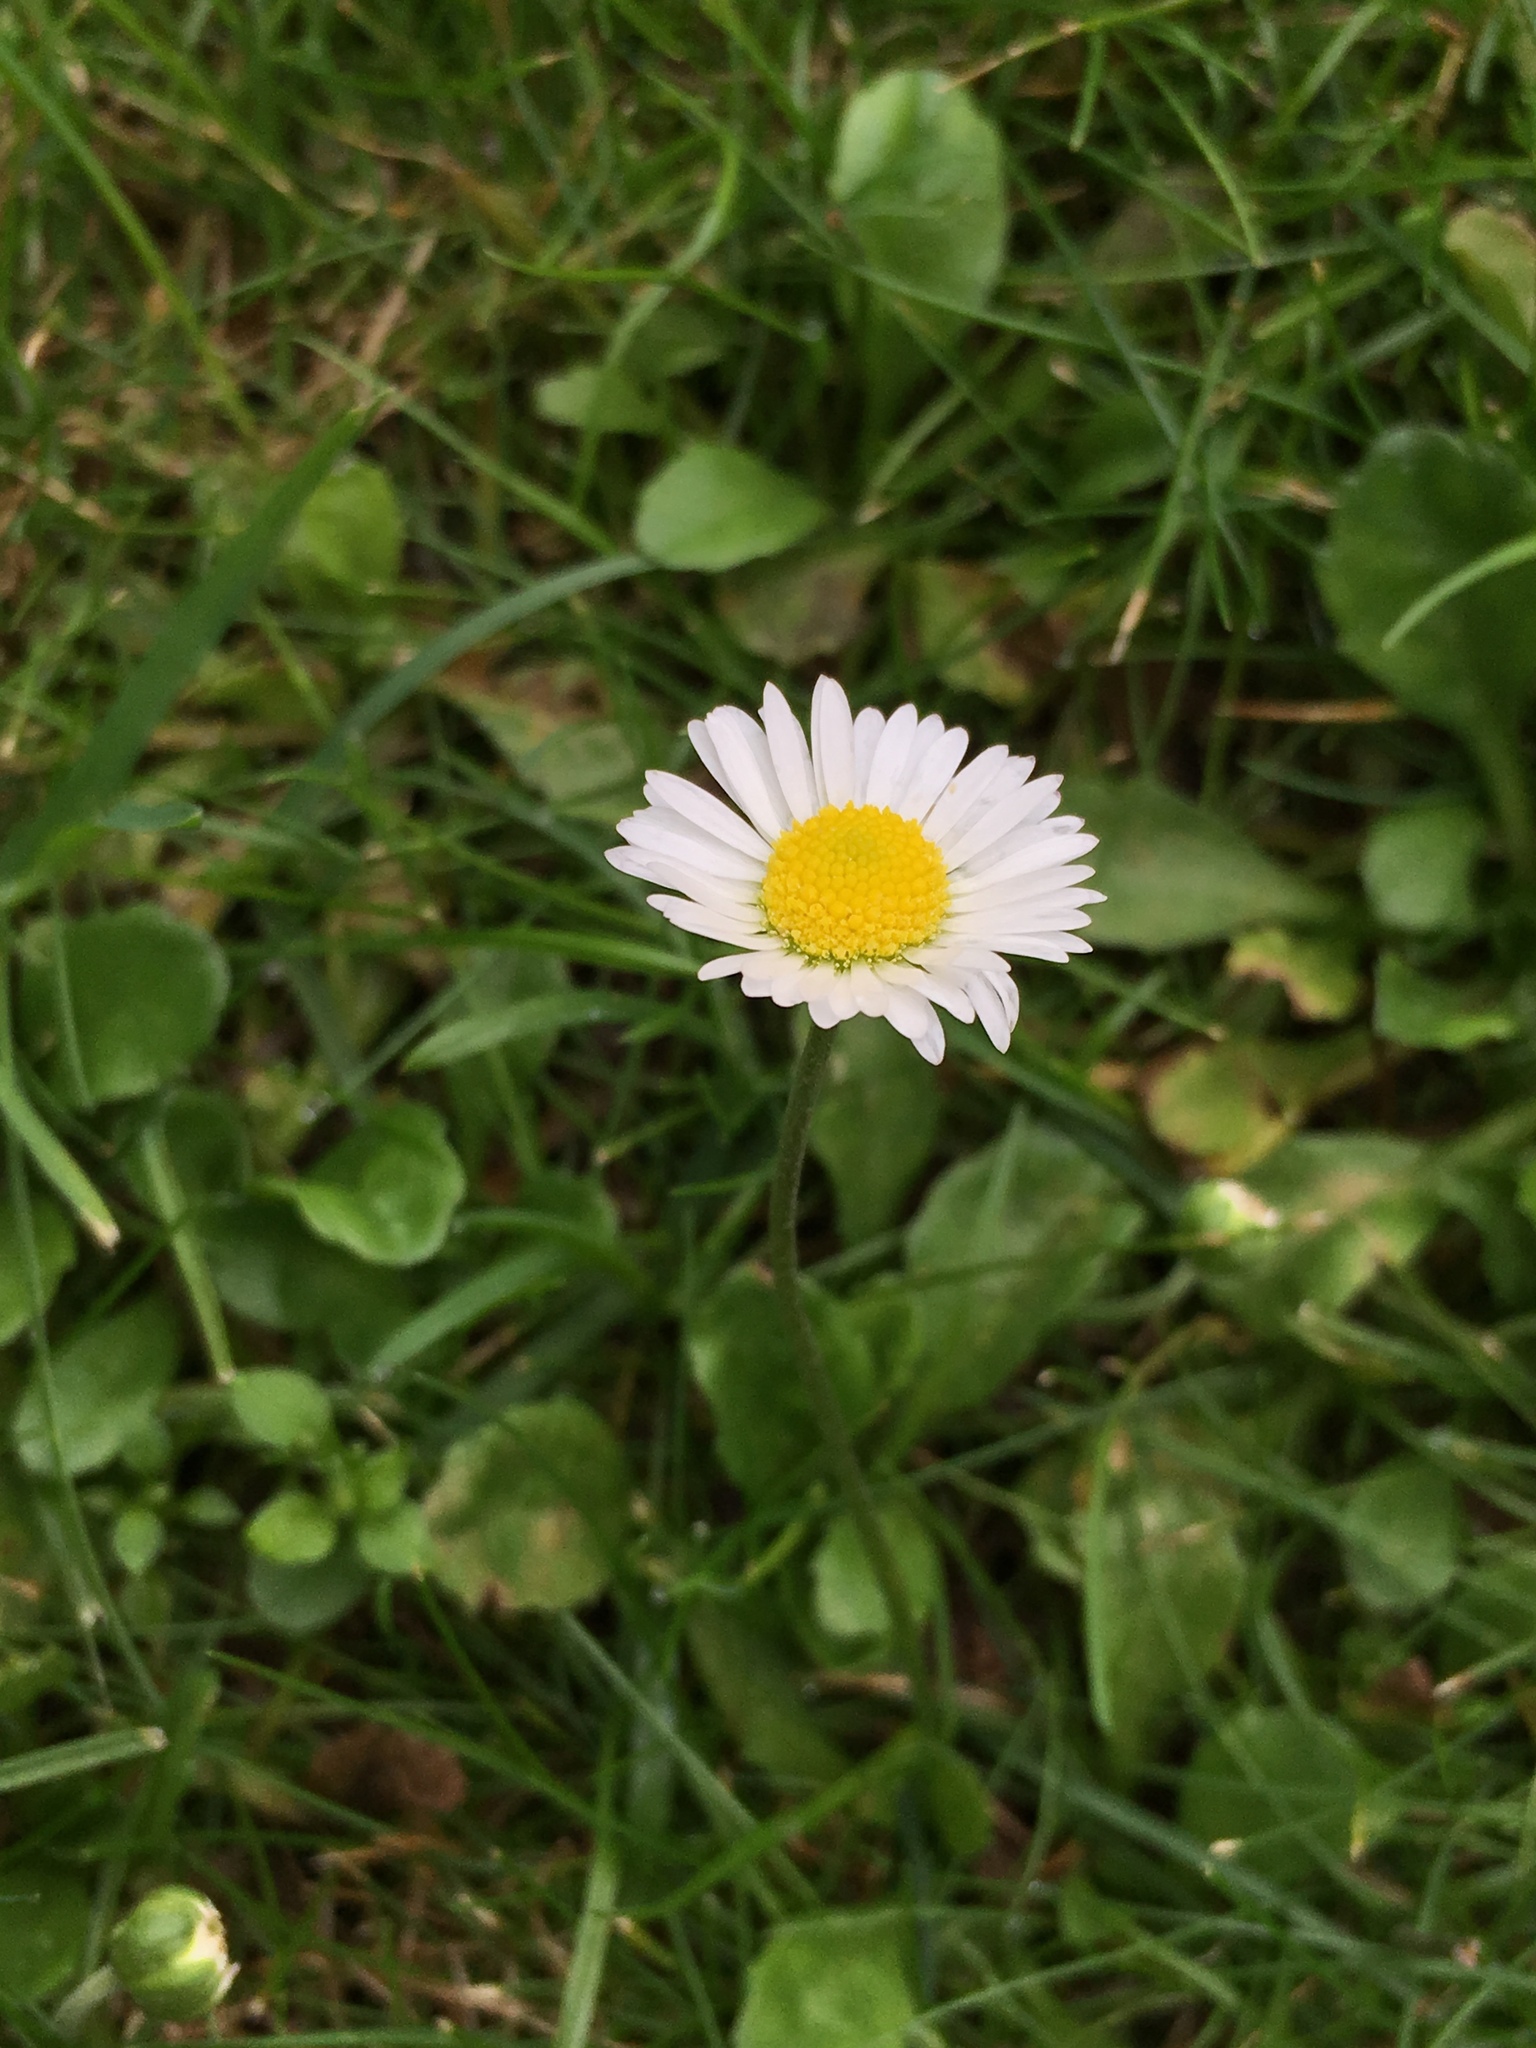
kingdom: Plantae
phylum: Tracheophyta
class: Magnoliopsida
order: Asterales
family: Asteraceae
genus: Bellis
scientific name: Bellis perennis
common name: Lawndaisy
